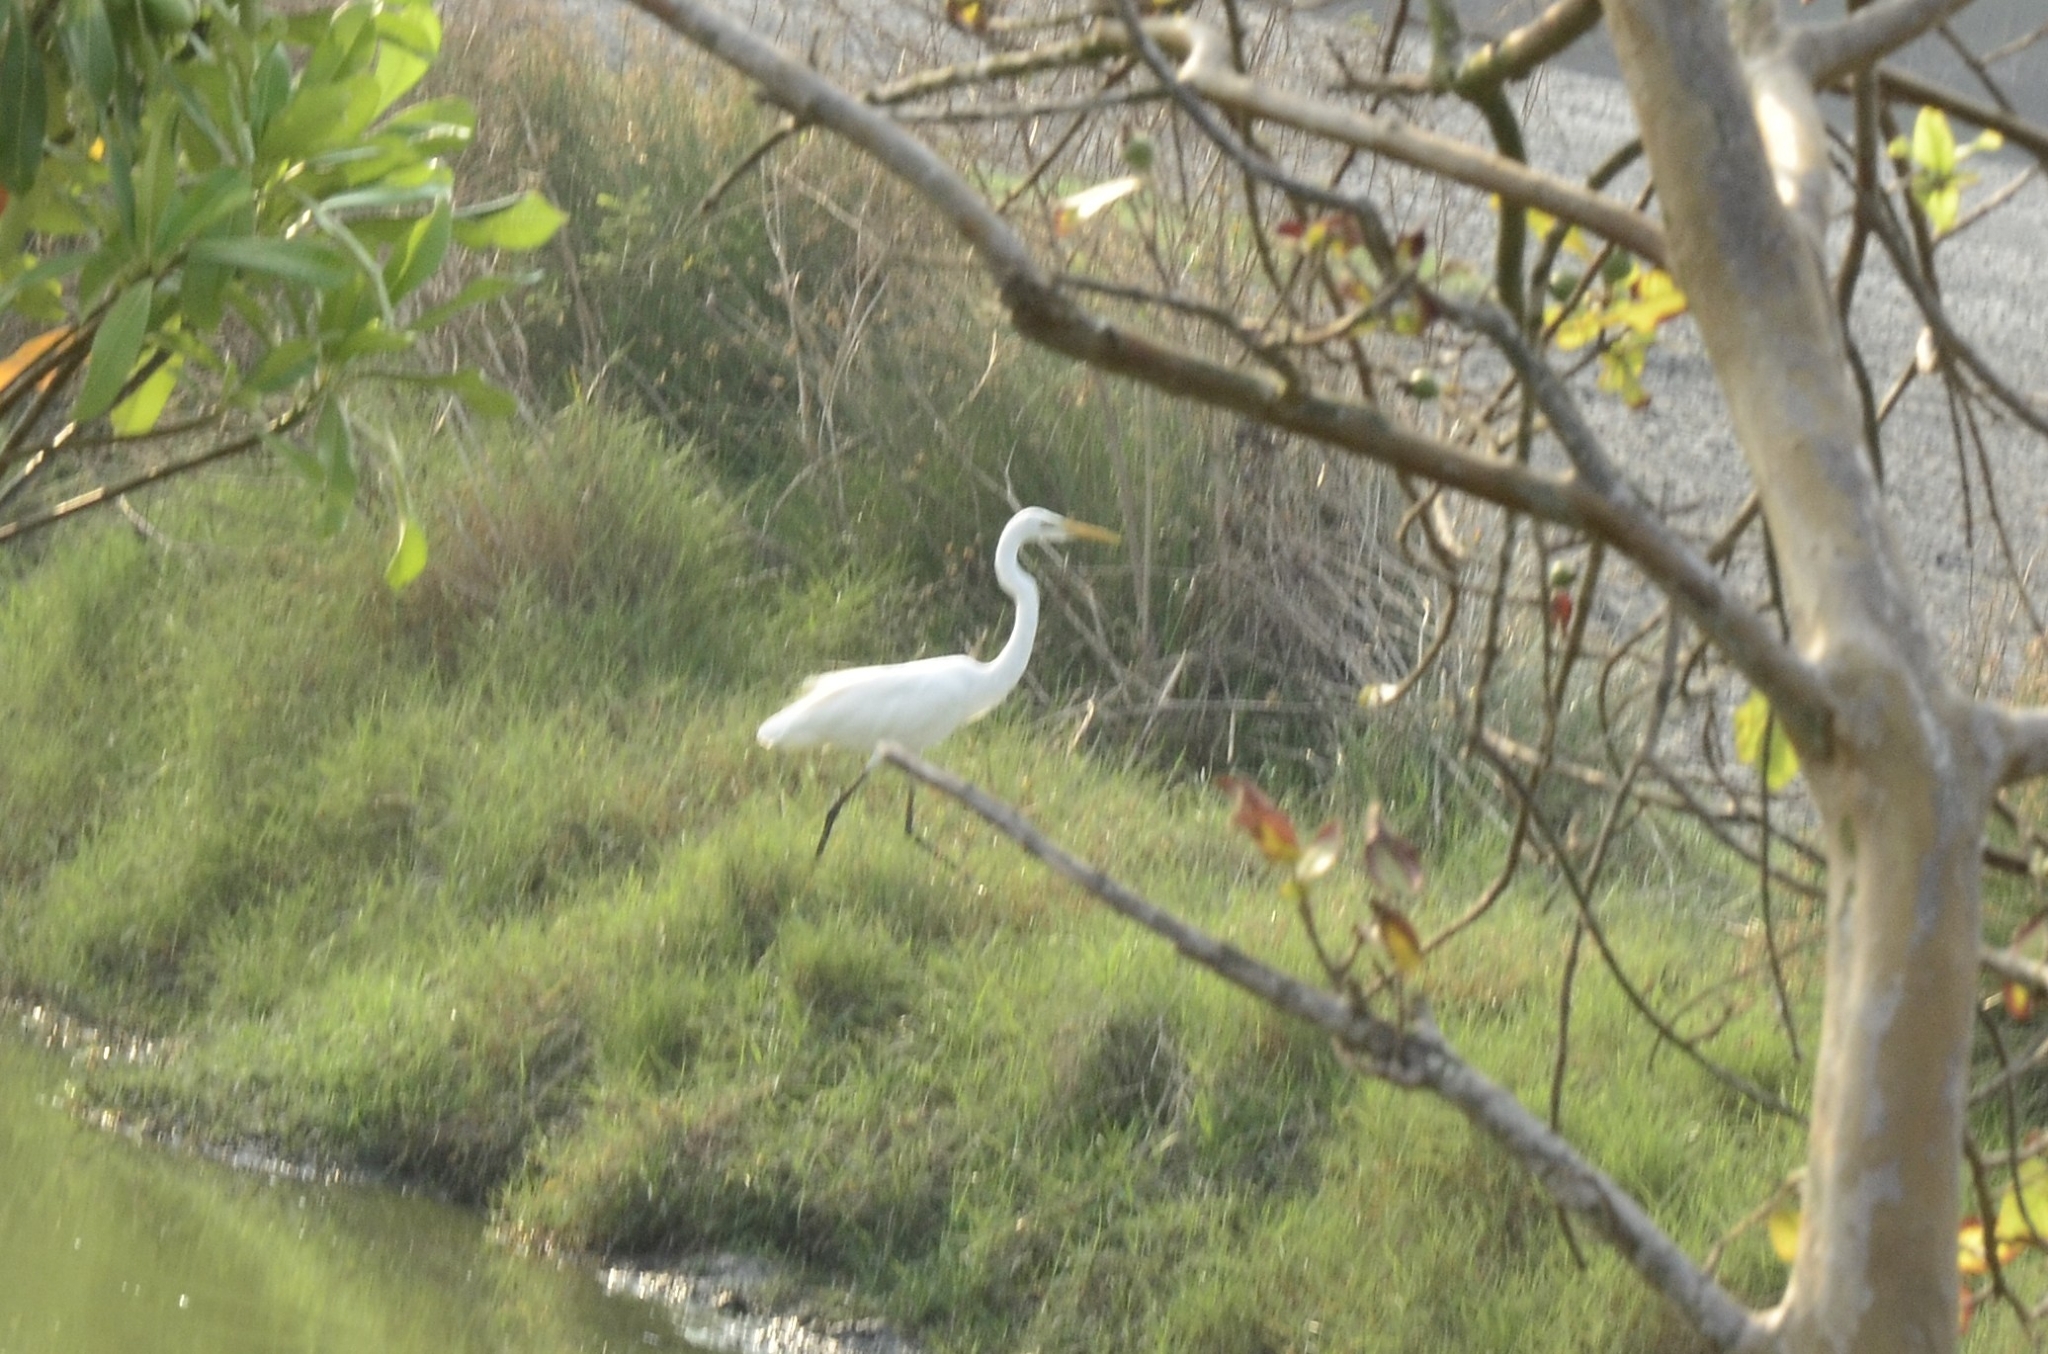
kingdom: Animalia
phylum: Chordata
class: Aves
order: Pelecaniformes
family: Ardeidae
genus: Ardea
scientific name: Ardea alba
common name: Great egret
